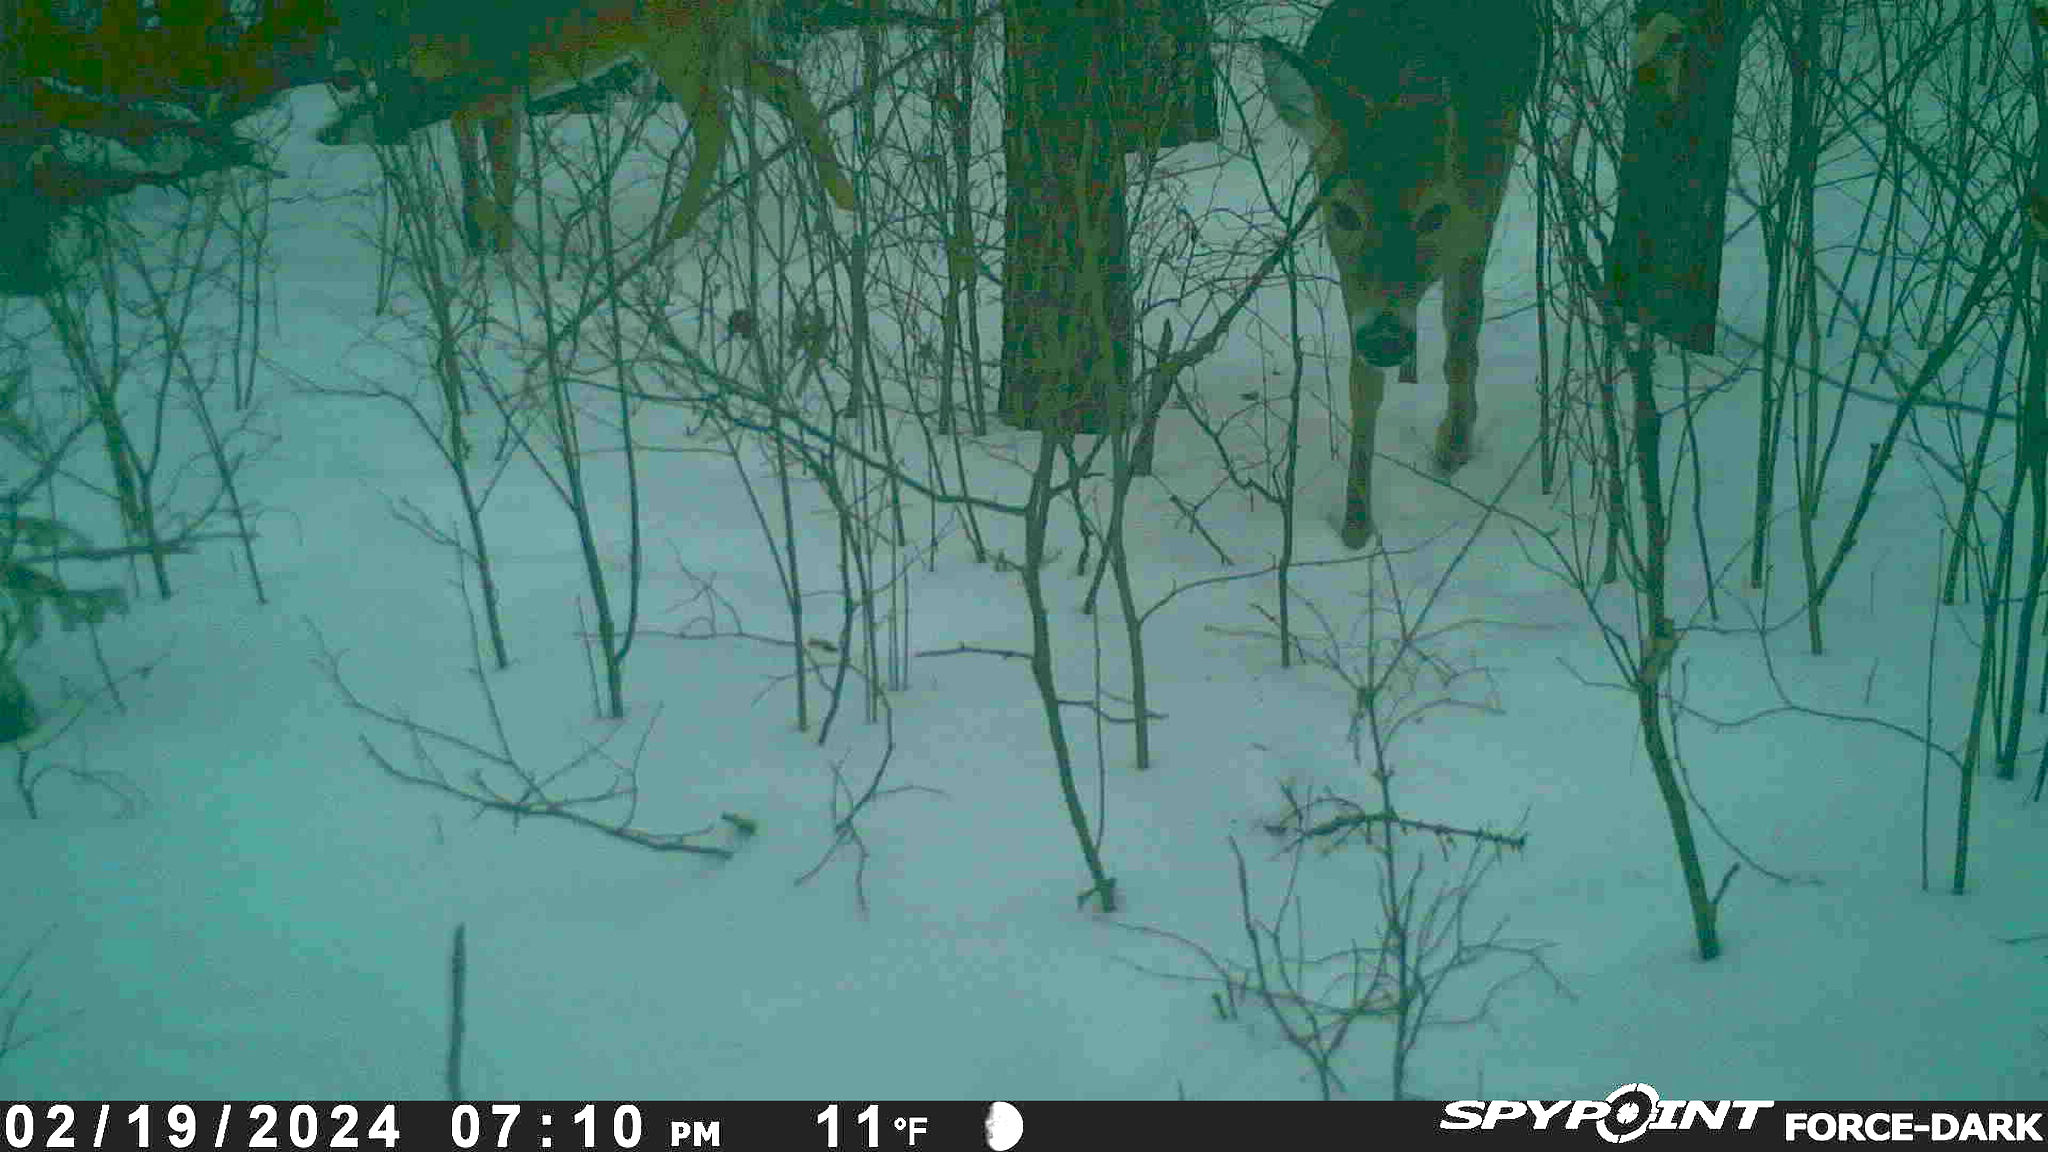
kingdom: Animalia
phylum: Chordata
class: Mammalia
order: Artiodactyla
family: Cervidae
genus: Odocoileus
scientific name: Odocoileus virginianus
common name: White-tailed deer
